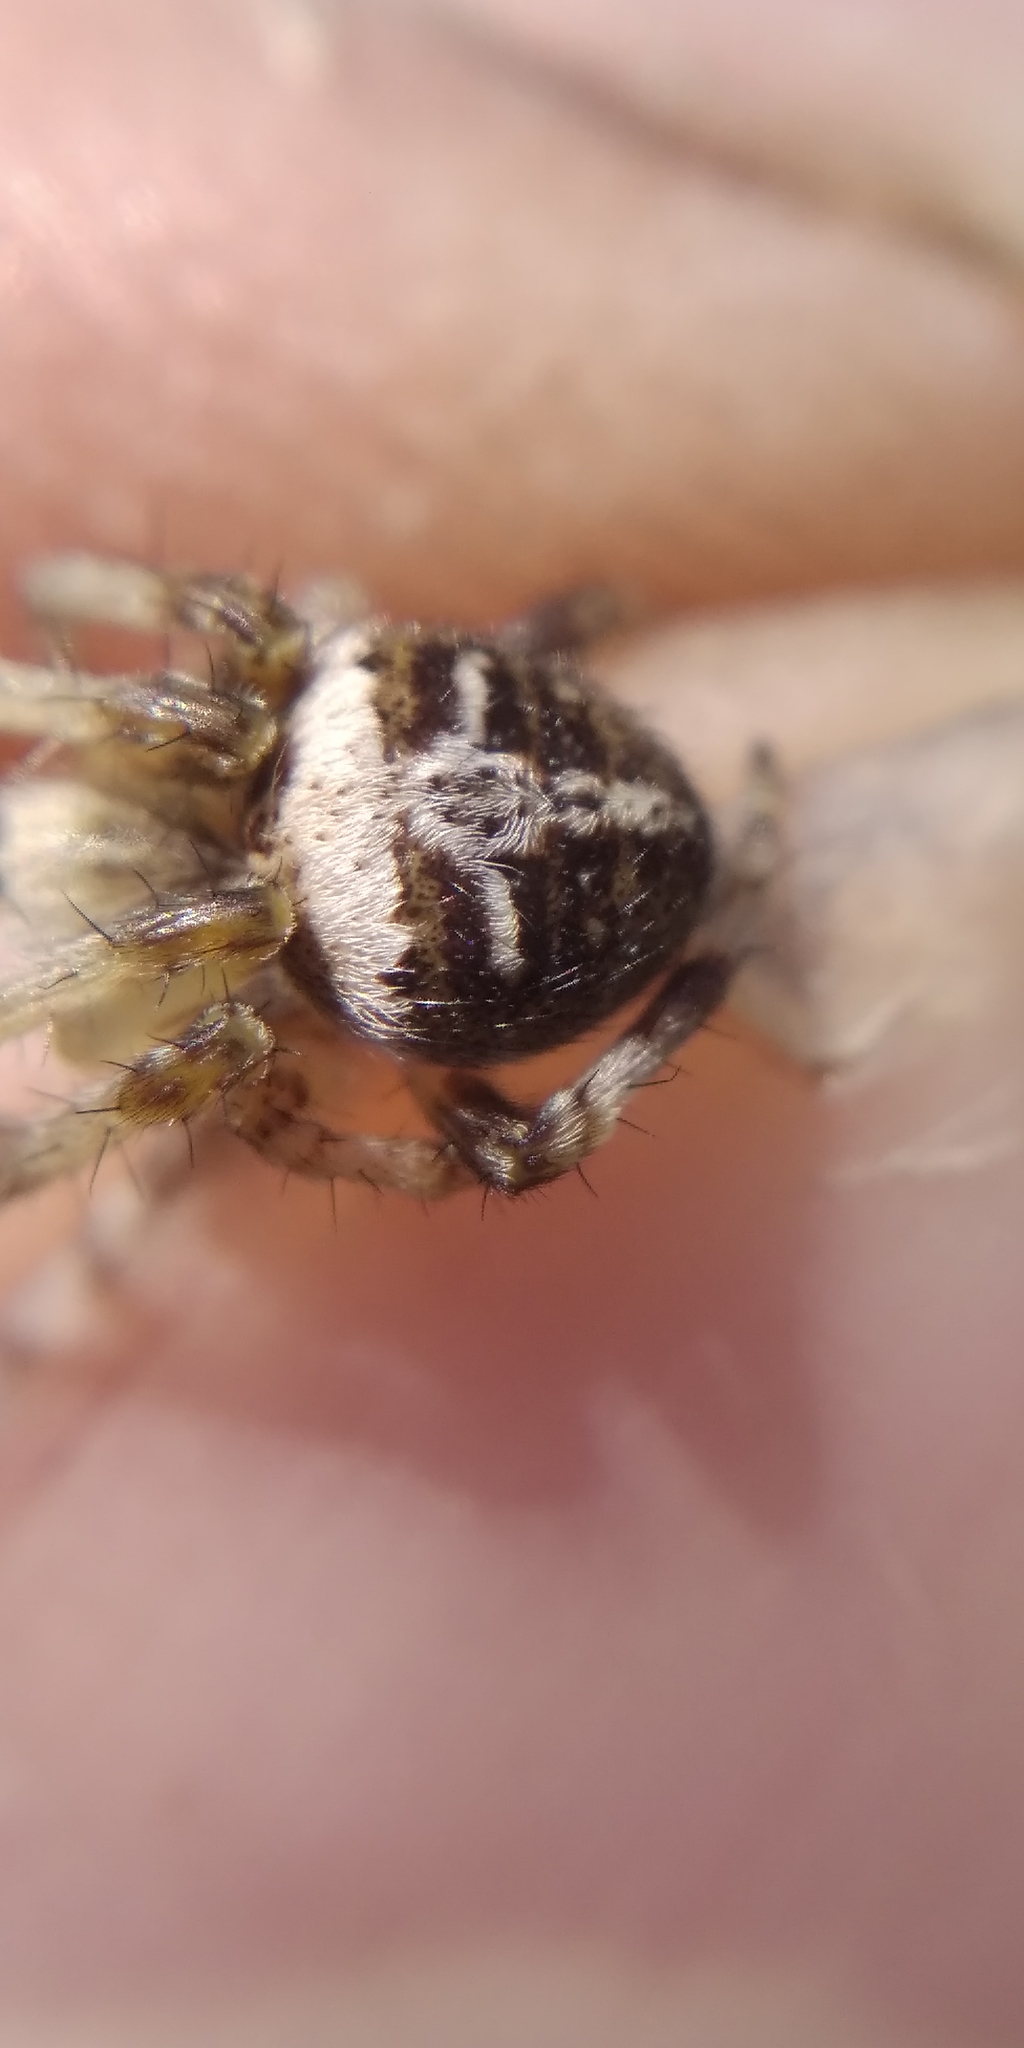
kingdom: Animalia
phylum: Arthropoda
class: Arachnida
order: Araneae
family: Araneidae
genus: Agalenatea
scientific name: Agalenatea redii
